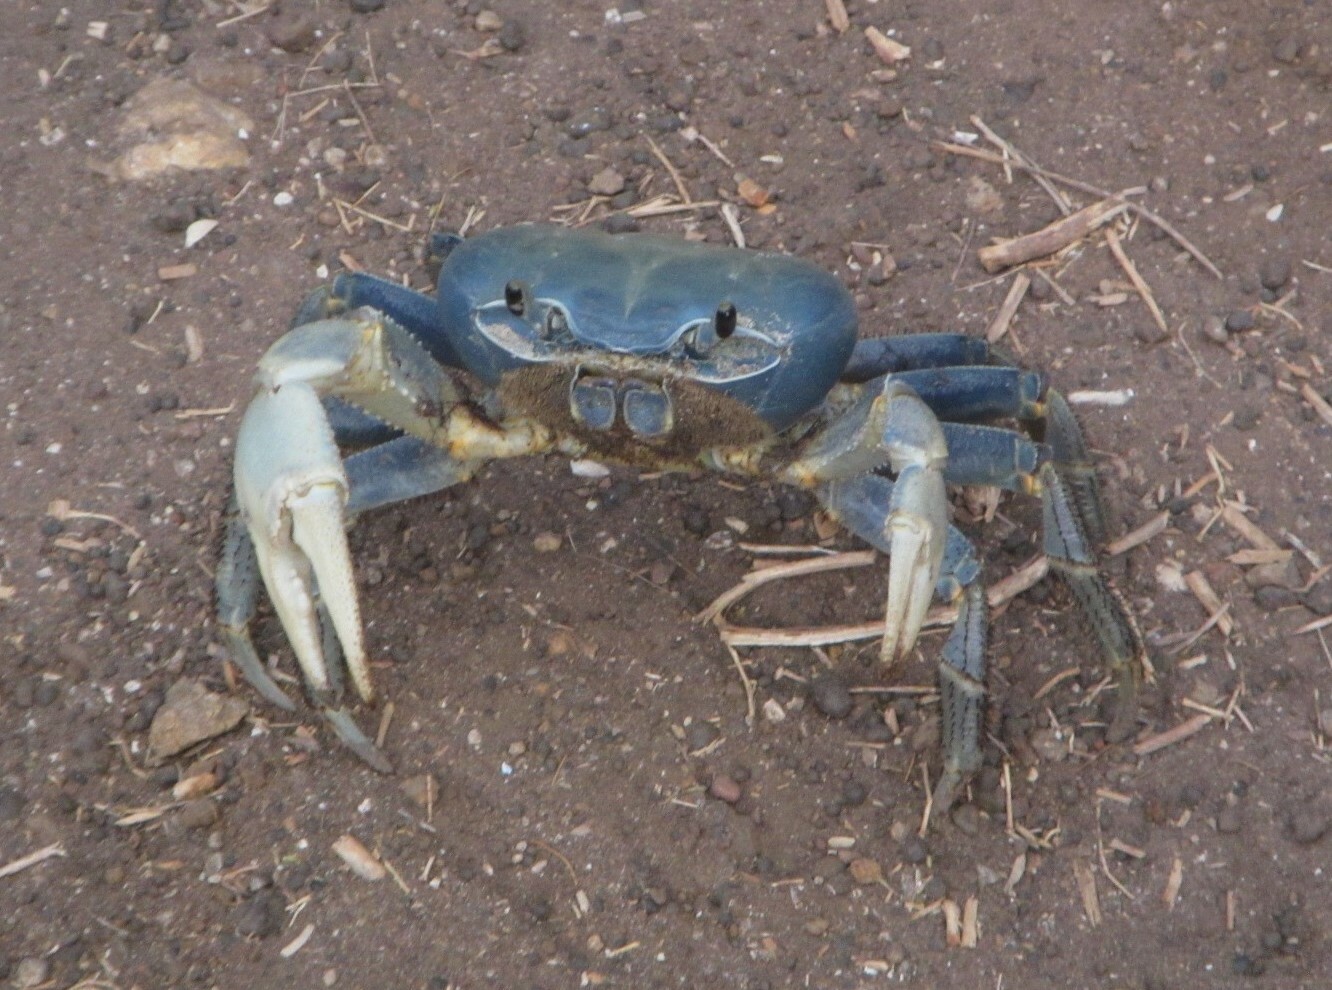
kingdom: Animalia
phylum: Arthropoda
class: Malacostraca
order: Decapoda
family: Gecarcinidae
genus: Cardisoma
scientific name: Cardisoma armatum
